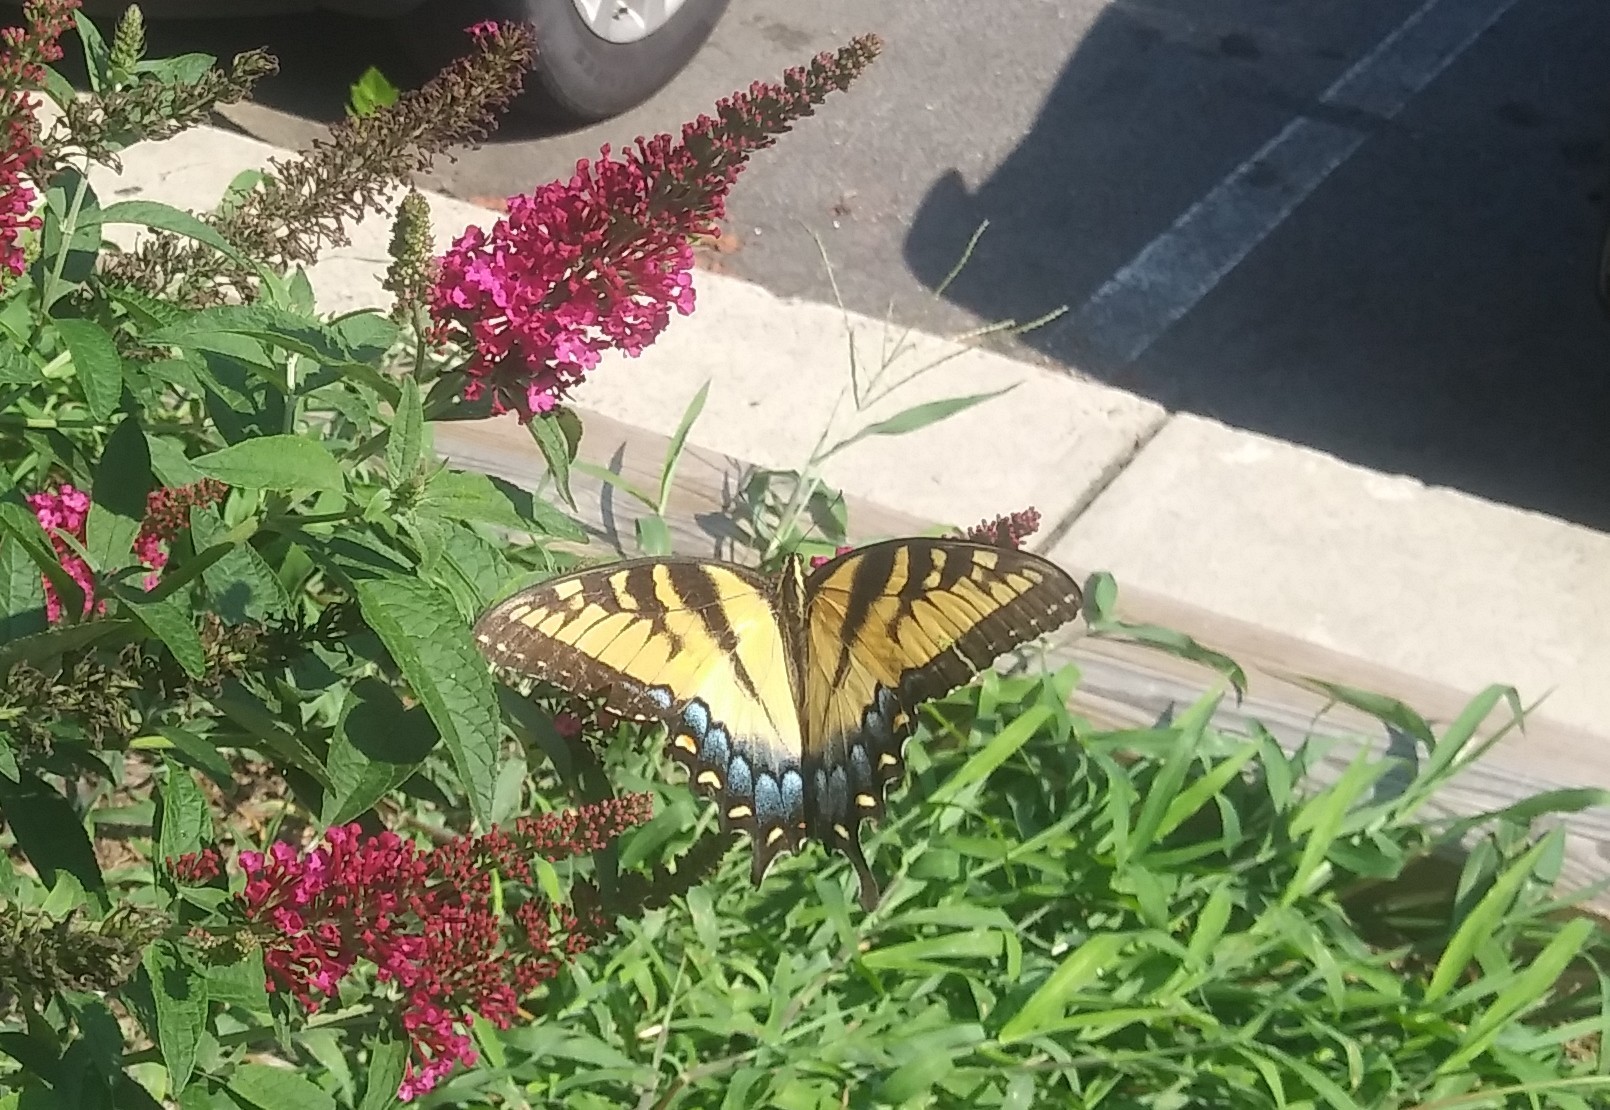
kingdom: Animalia
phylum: Arthropoda
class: Insecta
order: Lepidoptera
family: Papilionidae
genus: Papilio
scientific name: Papilio glaucus
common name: Tiger swallowtail
